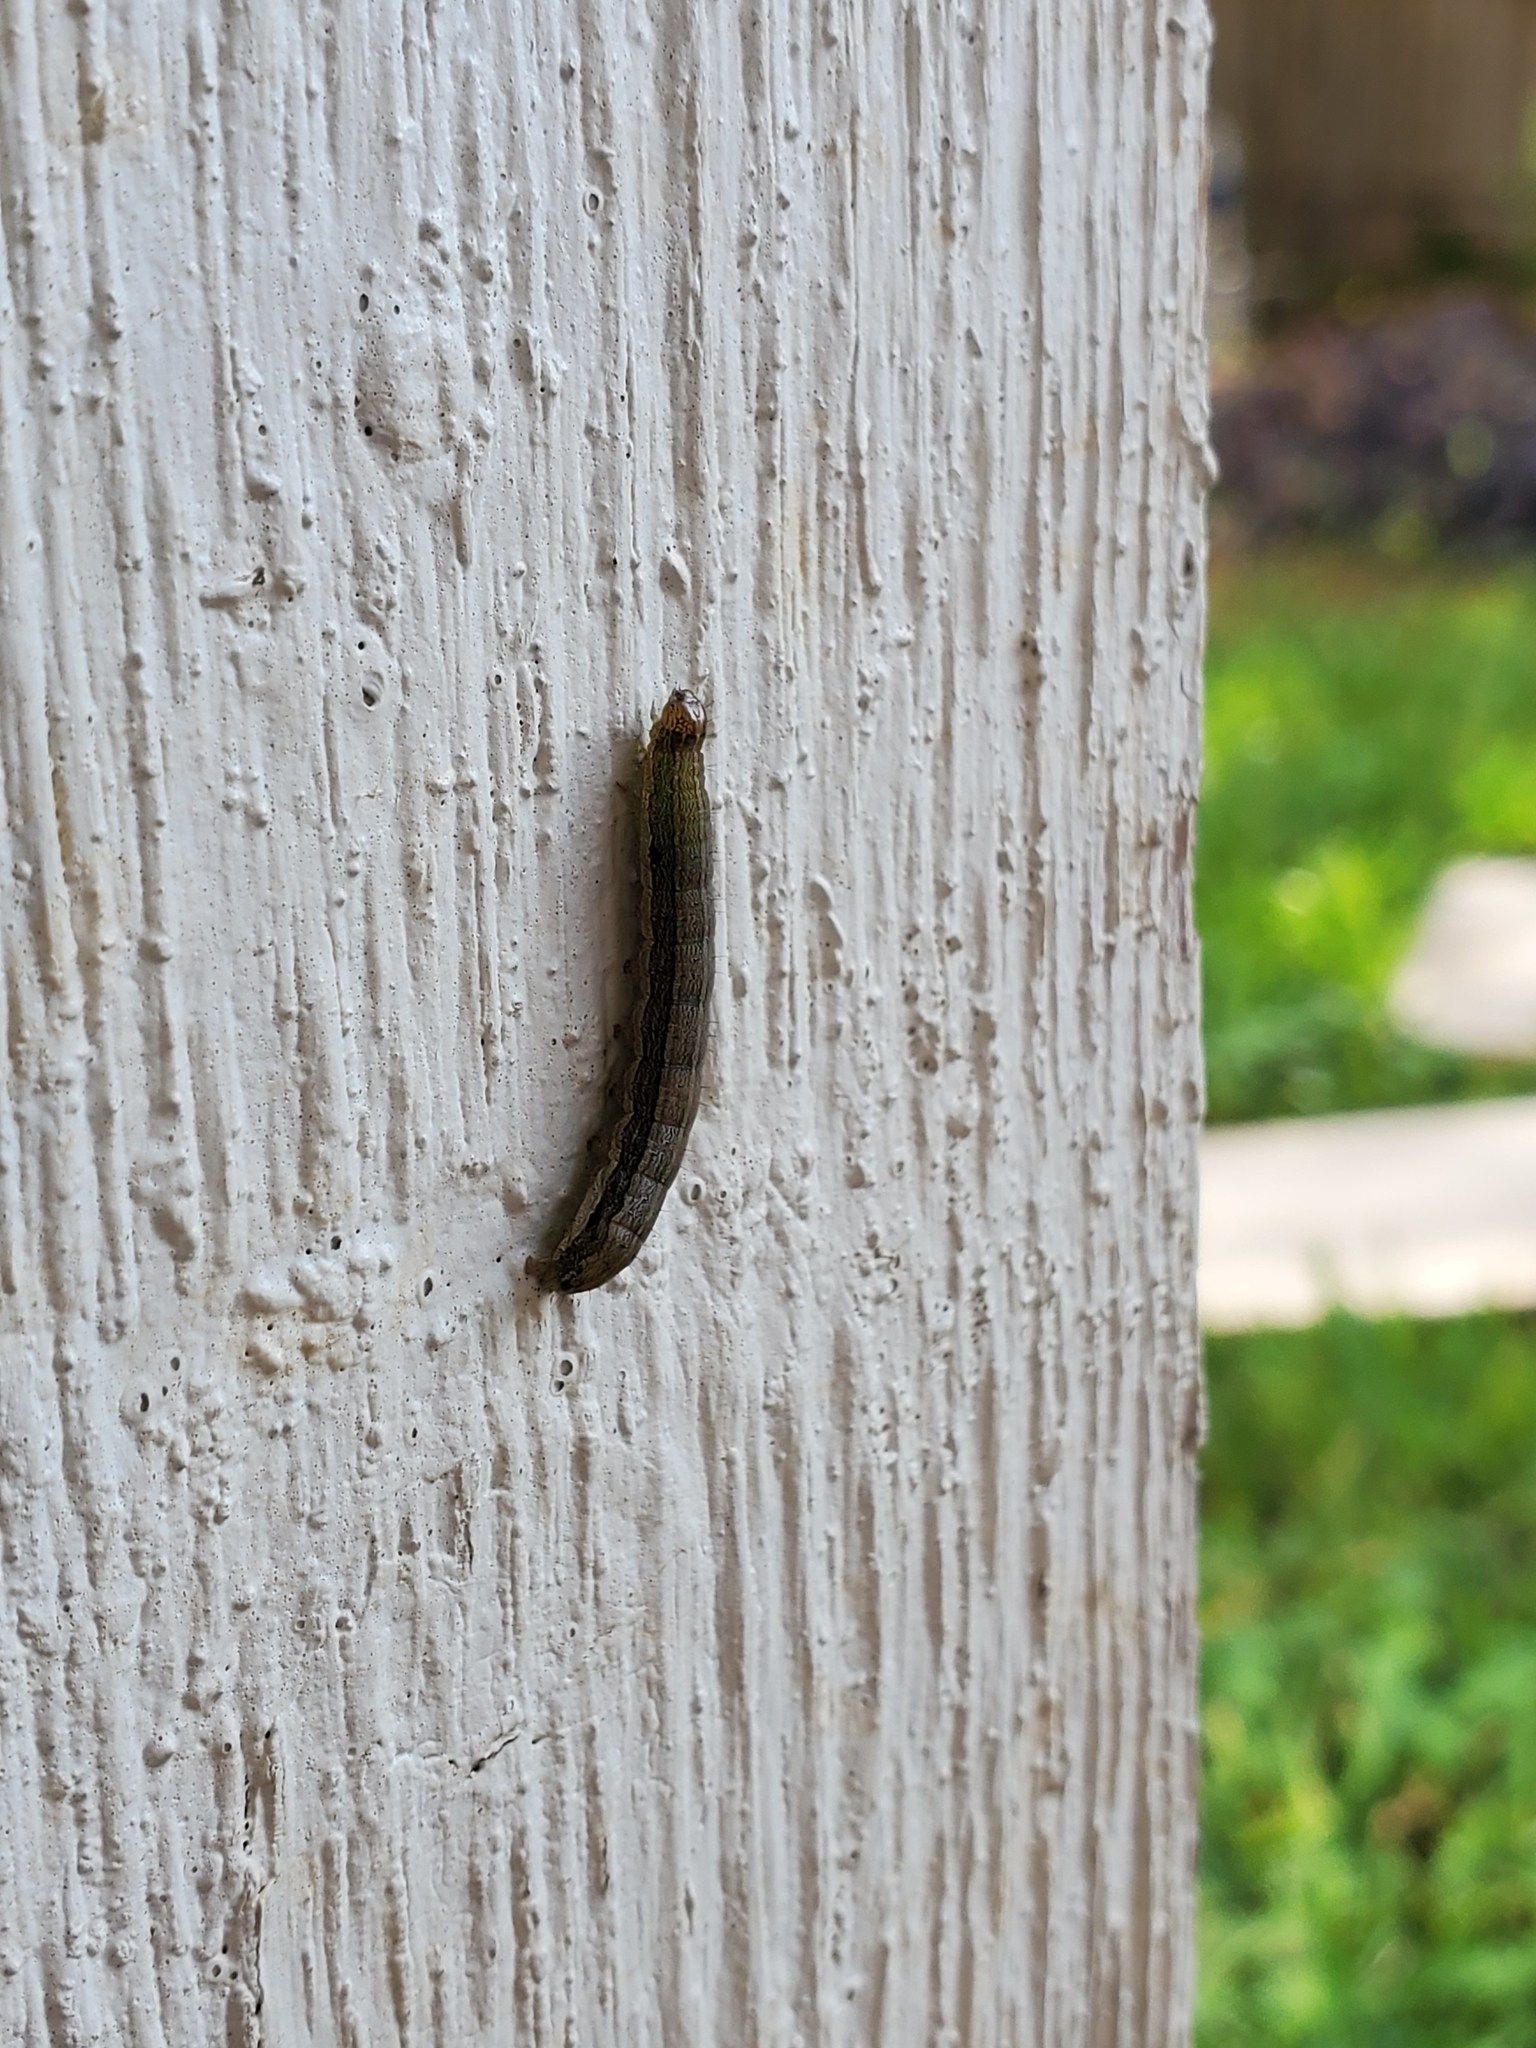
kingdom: Animalia
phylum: Arthropoda
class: Insecta
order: Lepidoptera
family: Noctuidae
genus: Spodoptera
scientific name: Spodoptera frugiperda
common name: Fall armyworm
